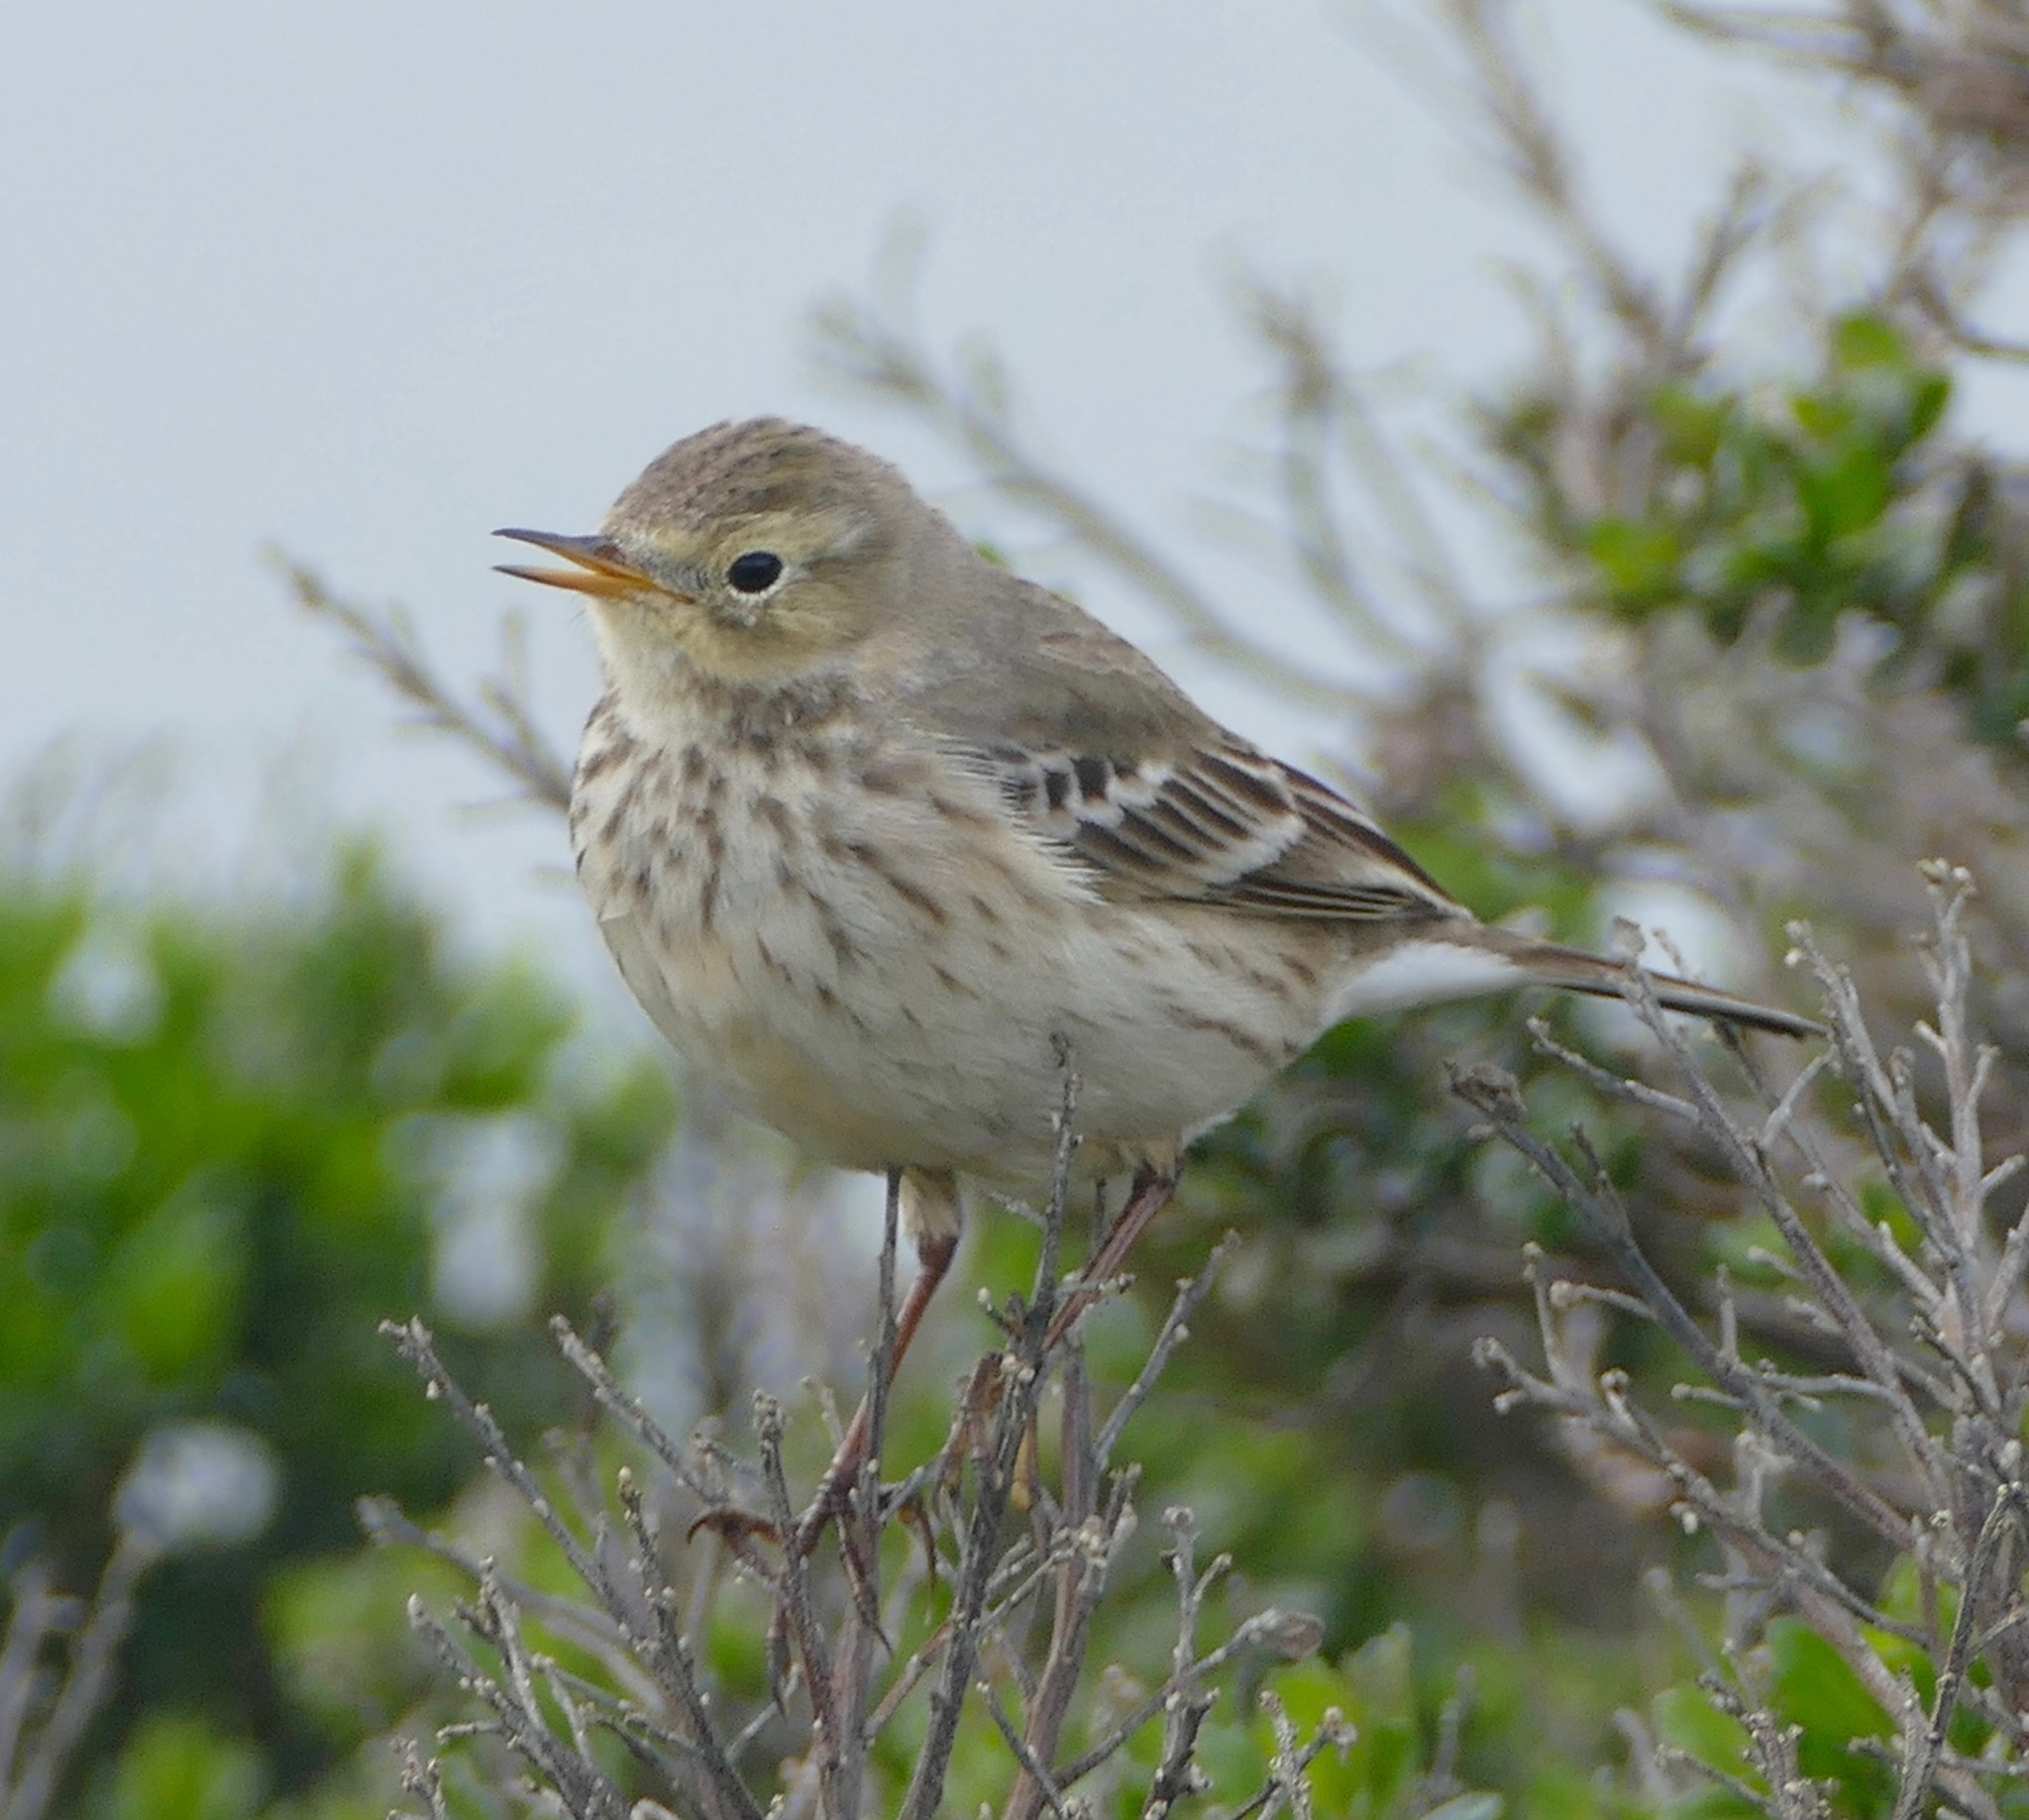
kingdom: Animalia
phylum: Chordata
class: Aves
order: Passeriformes
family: Motacillidae
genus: Anthus
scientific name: Anthus rubescens
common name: Buff-bellied pipit
